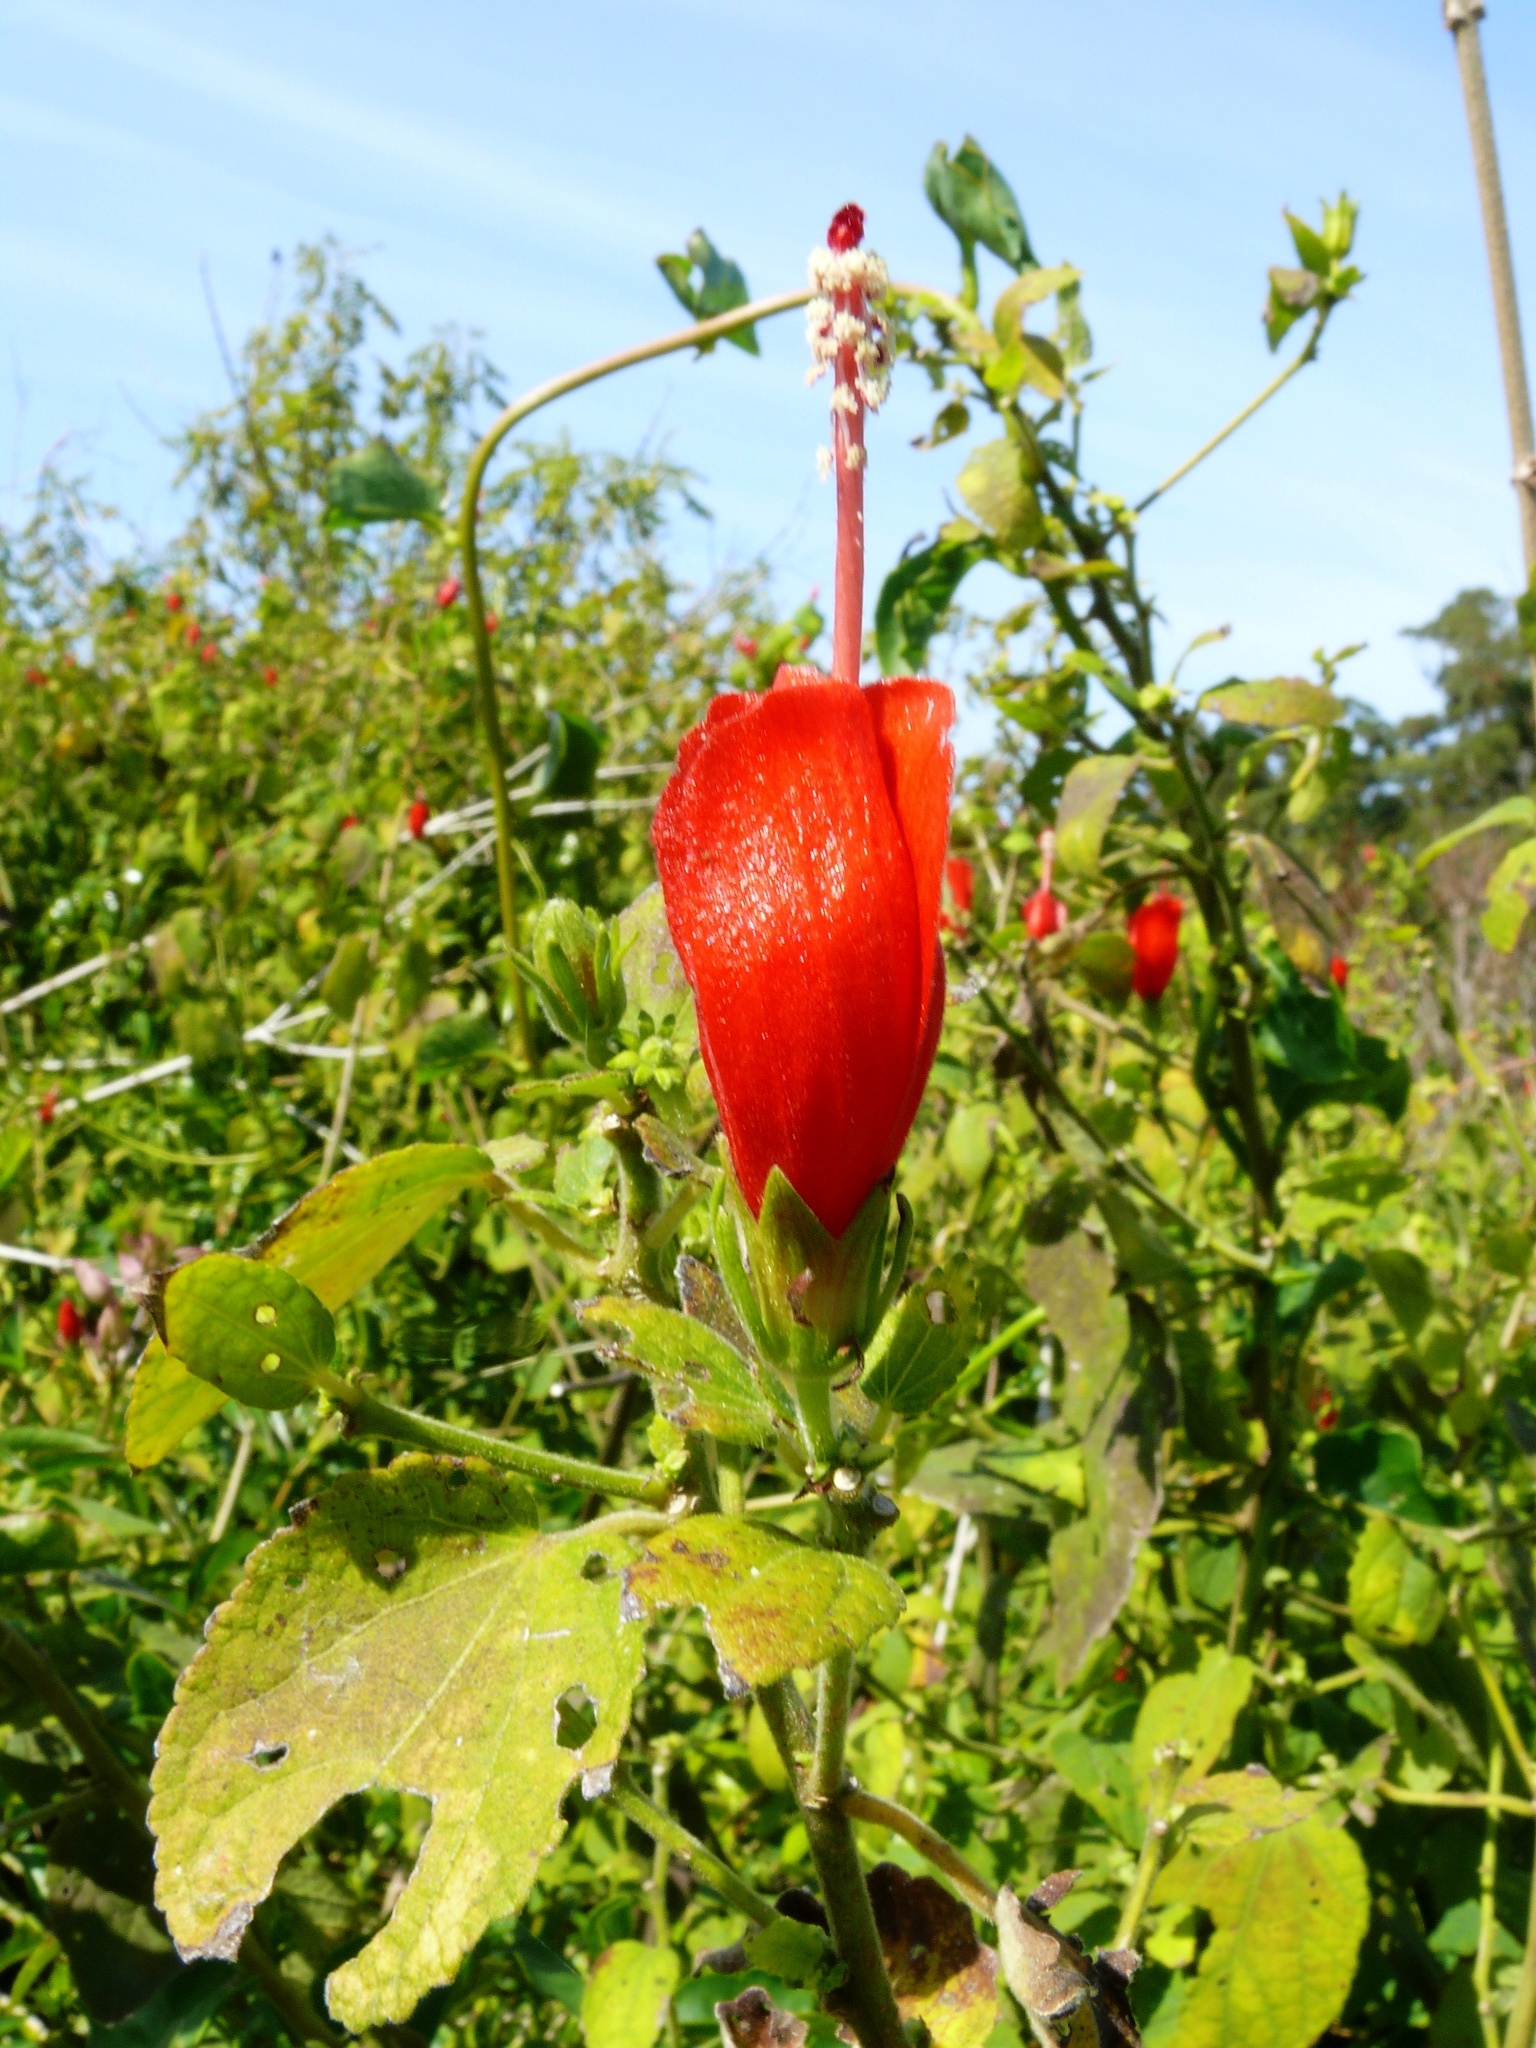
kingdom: Plantae
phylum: Tracheophyta
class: Magnoliopsida
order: Malvales
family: Malvaceae
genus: Malvaviscus
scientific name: Malvaviscus arboreus
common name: Wax mallow
